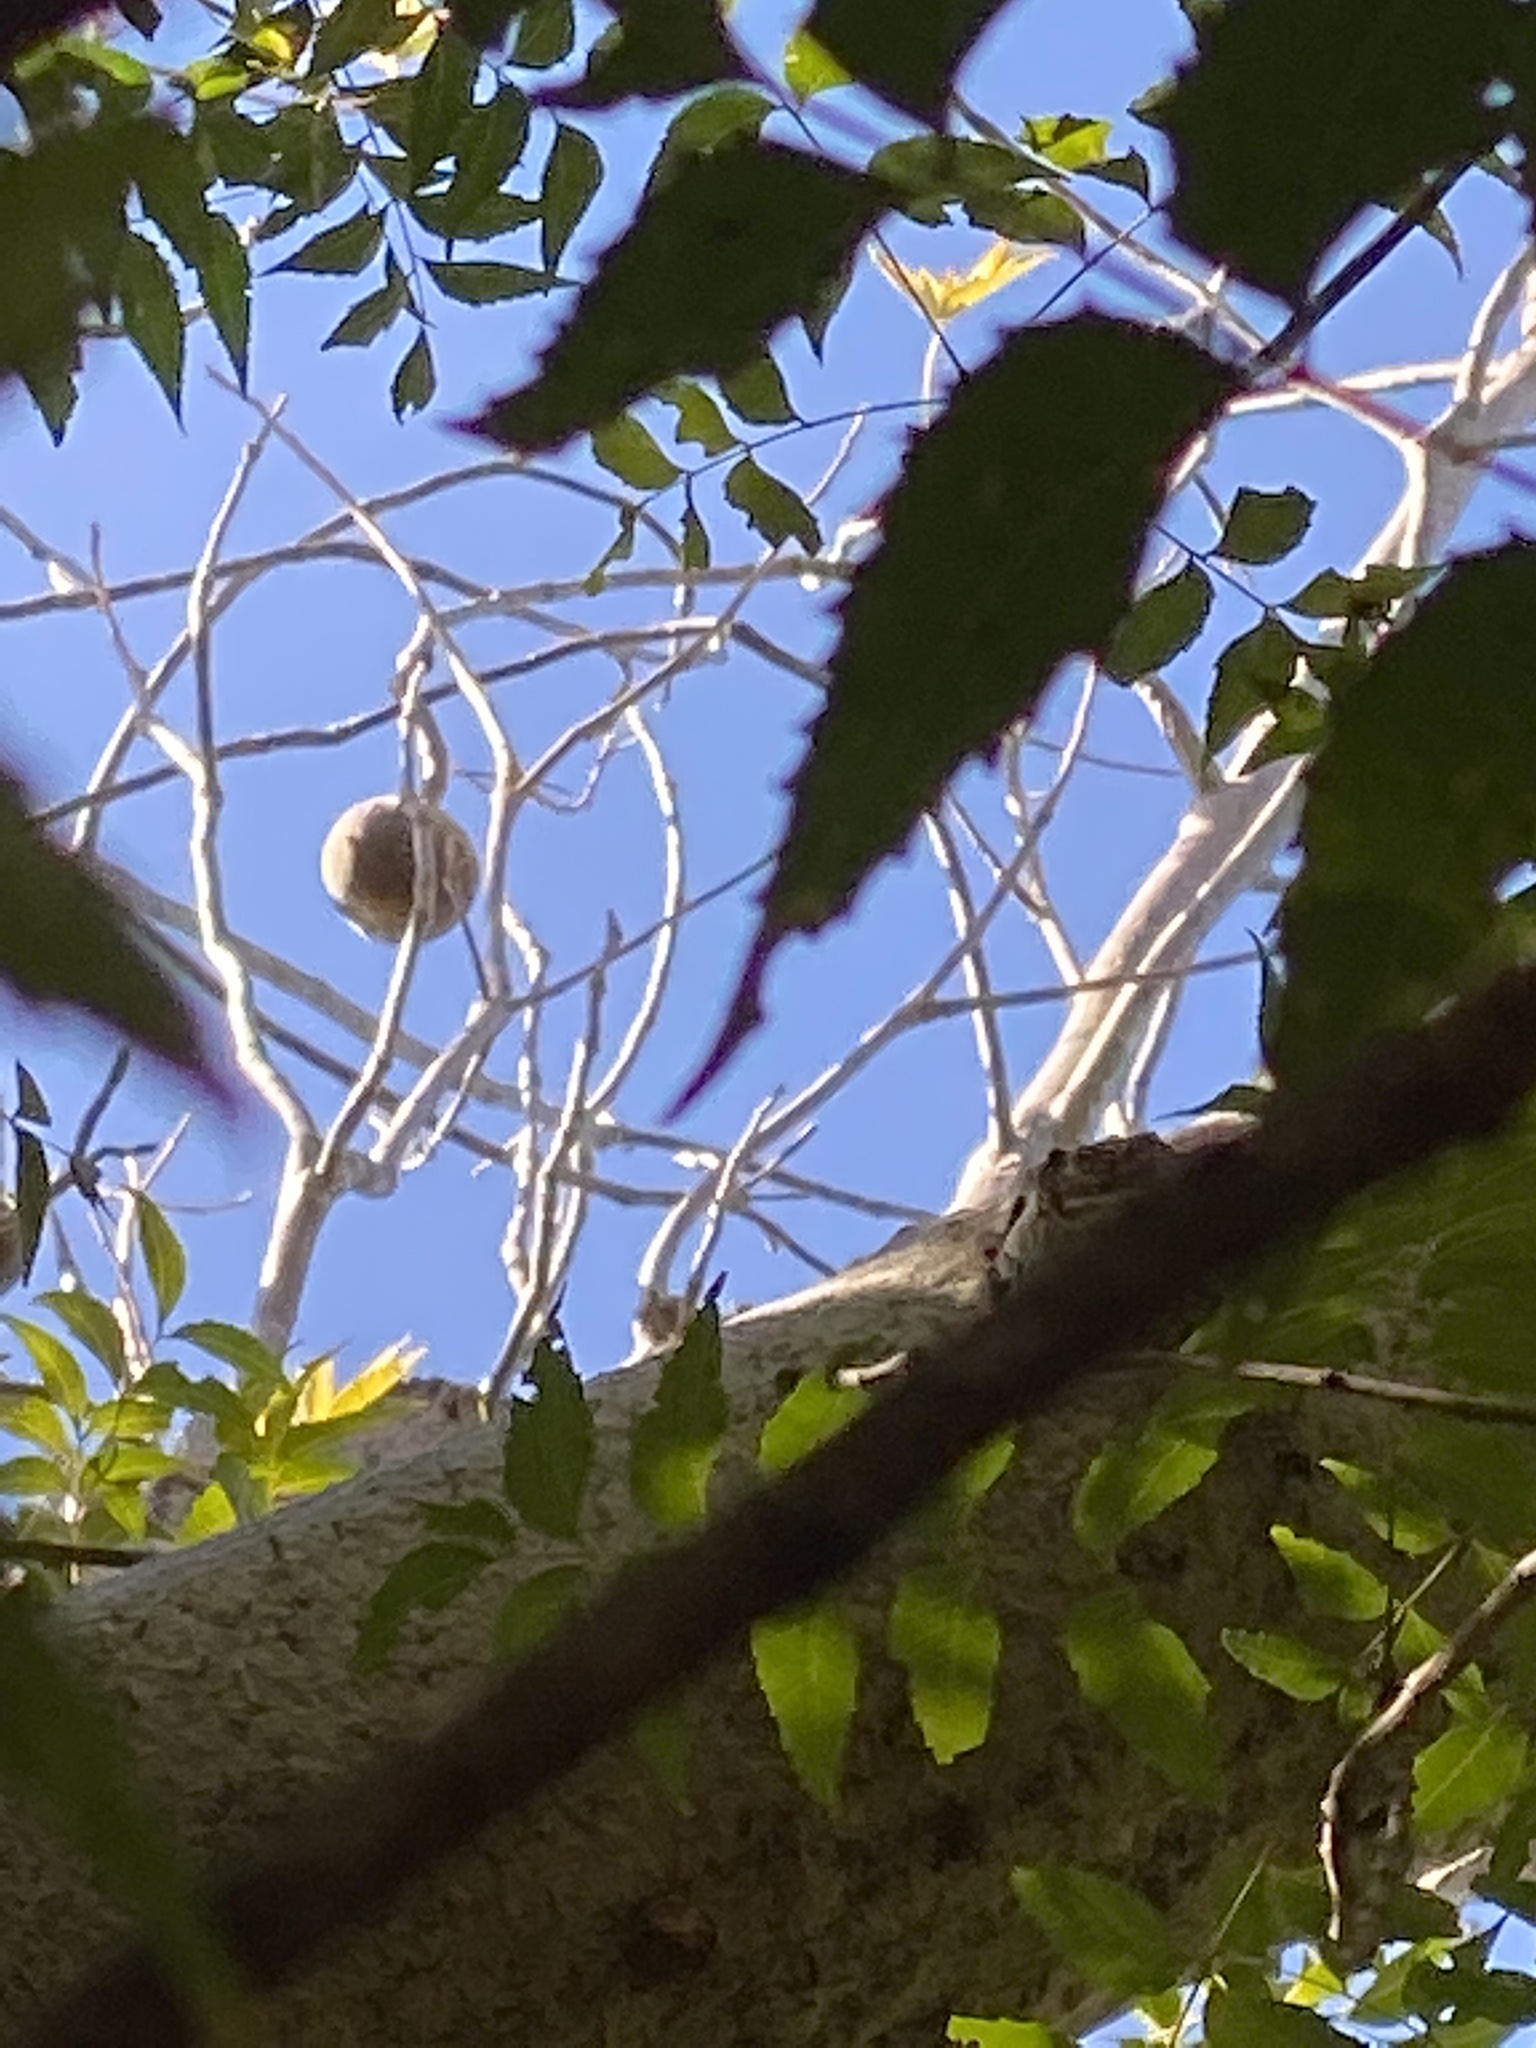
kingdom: Plantae
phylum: Tracheophyta
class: Magnoliopsida
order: Malvales
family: Malvaceae
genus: Adansonia
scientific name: Adansonia gregorii
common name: Australian baobab
